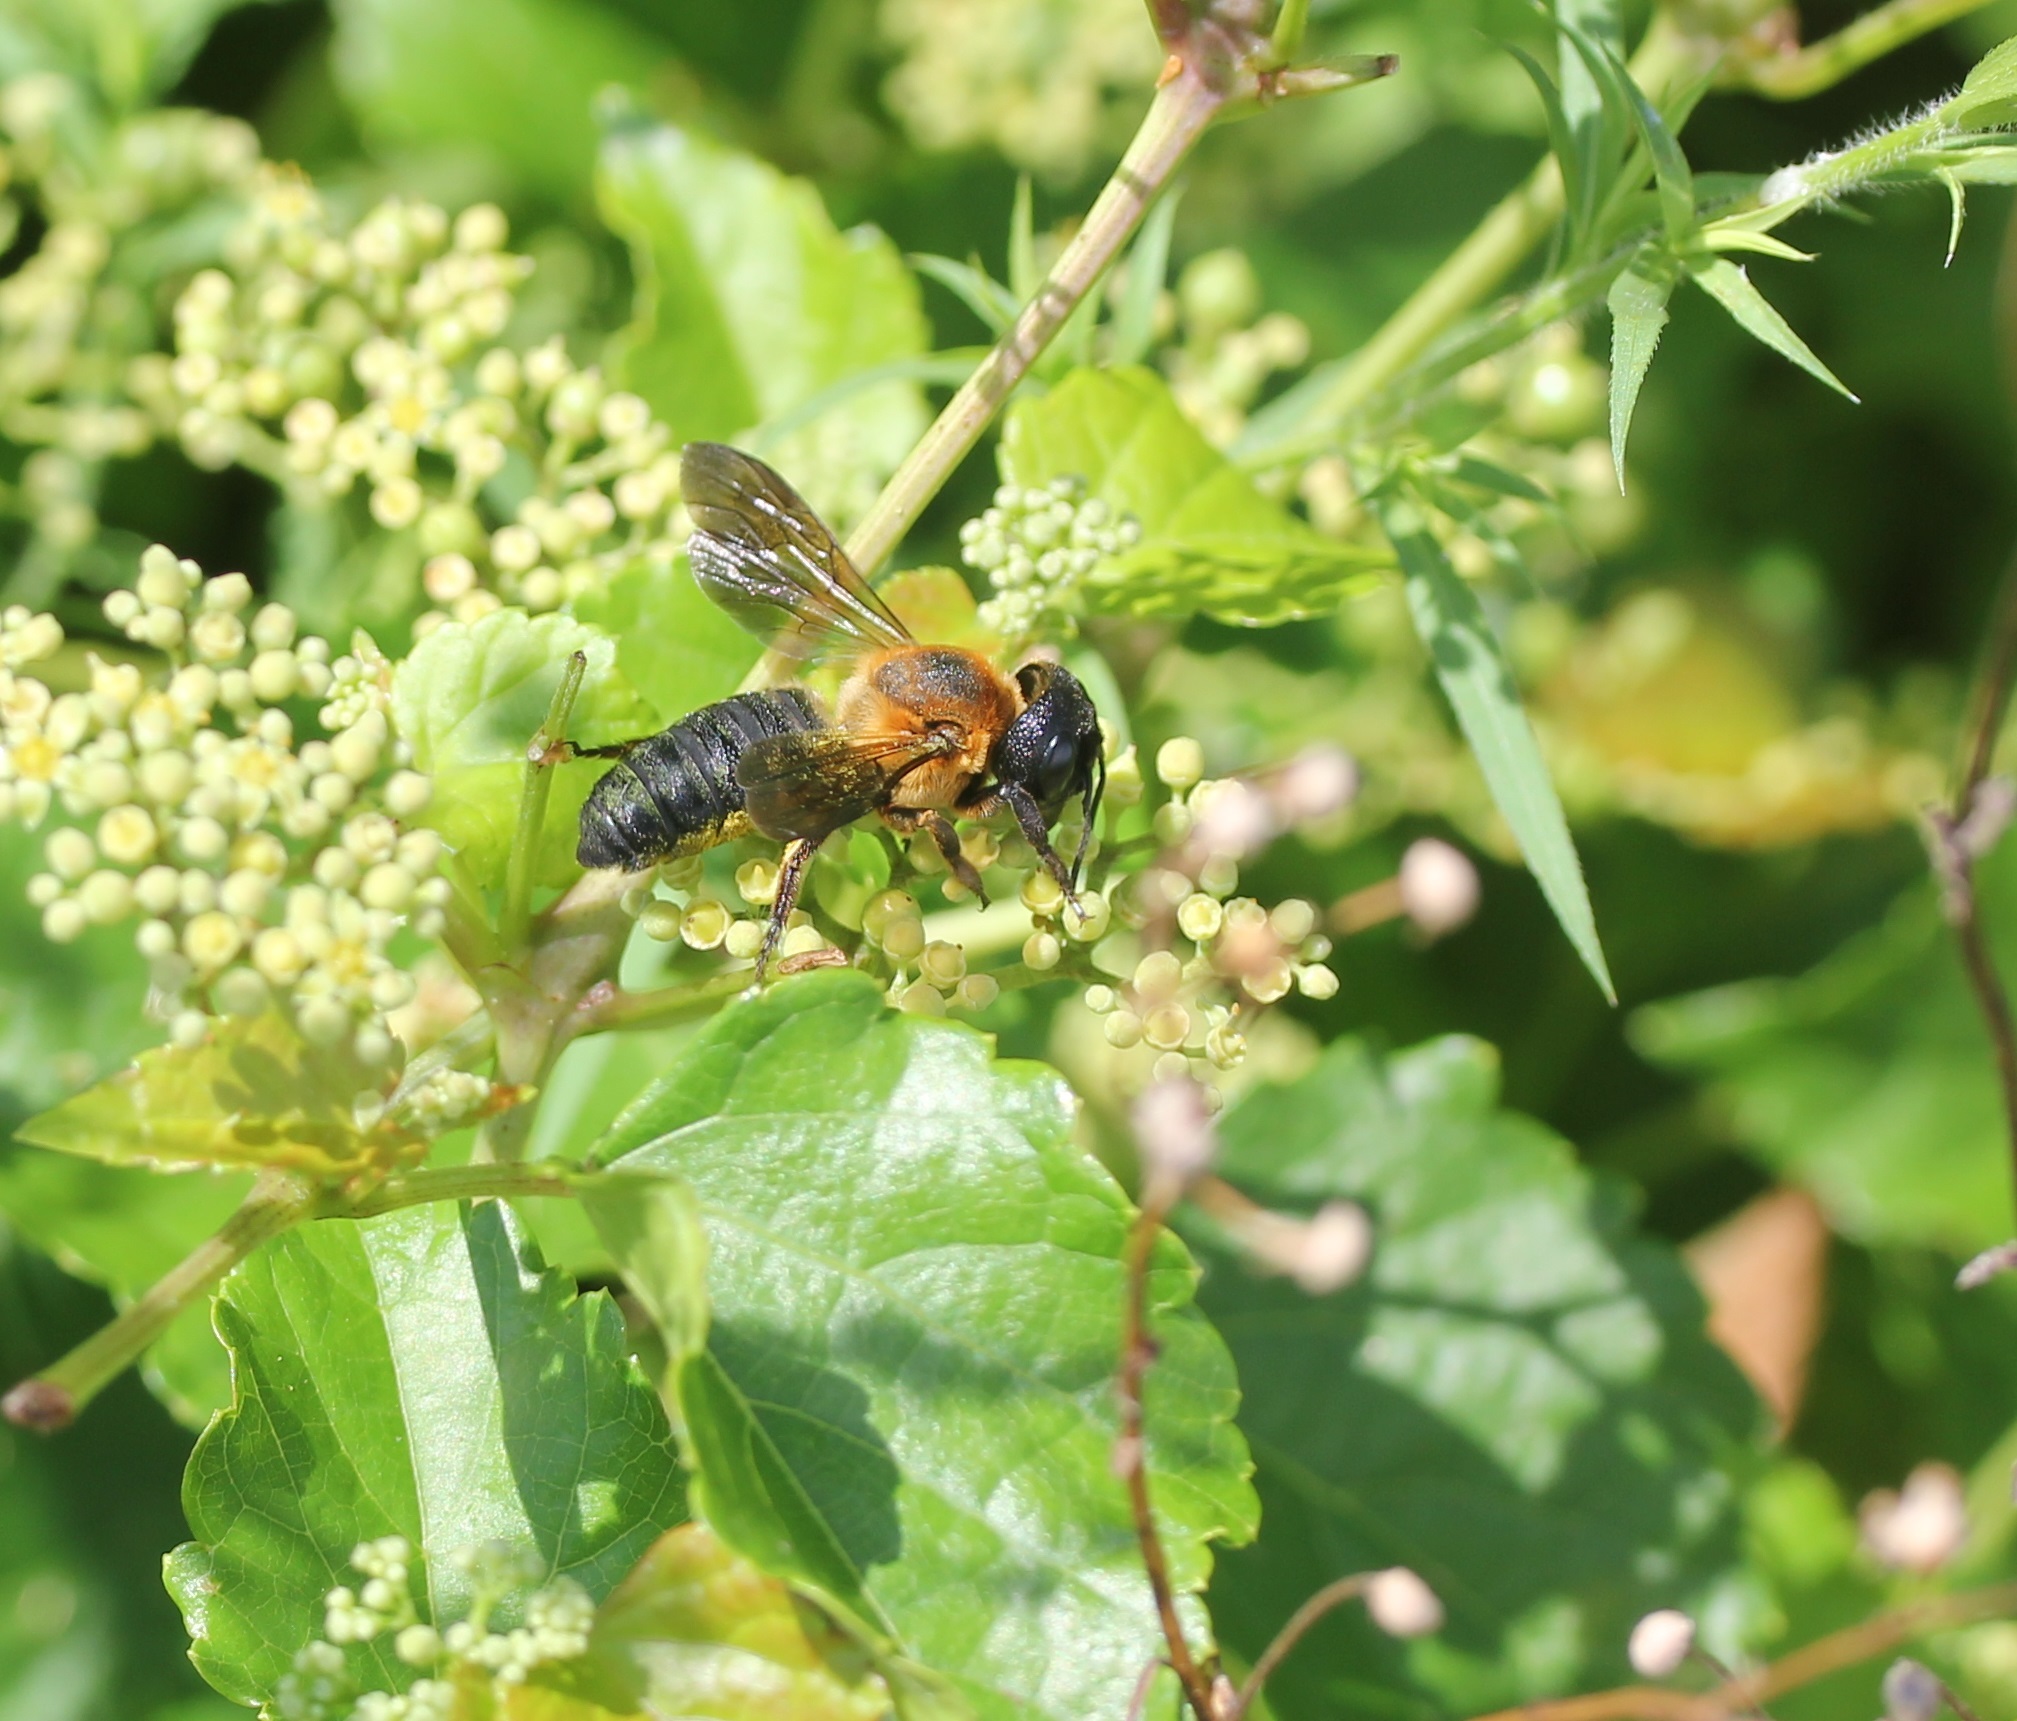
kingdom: Animalia
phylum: Arthropoda
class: Insecta
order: Hymenoptera
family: Megachilidae
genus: Megachile
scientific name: Megachile sculpturalis
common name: Sculptured resin bee
